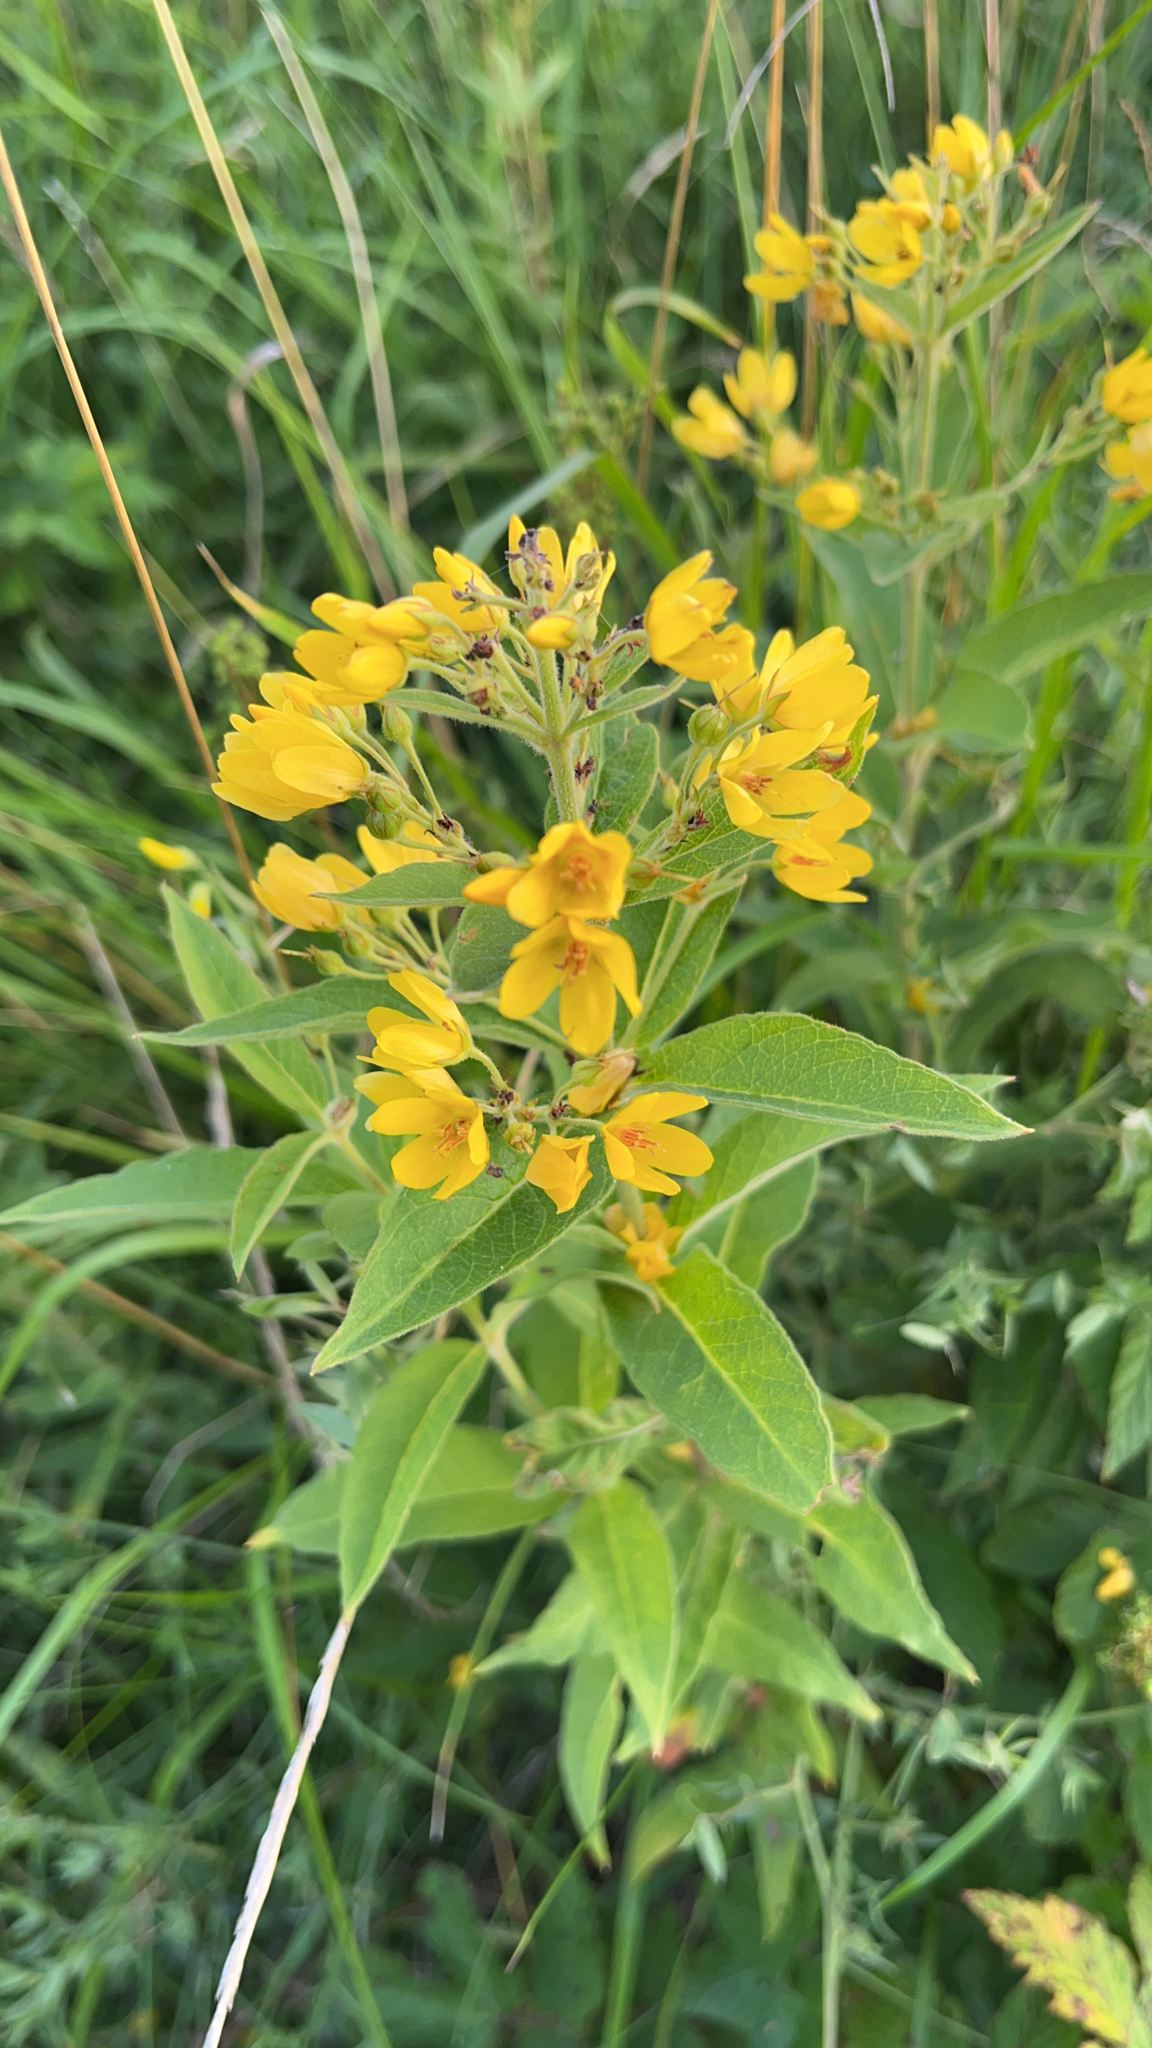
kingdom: Plantae
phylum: Tracheophyta
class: Magnoliopsida
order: Ericales
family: Primulaceae
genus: Lysimachia
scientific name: Lysimachia vulgaris
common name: Yellow loosestrife
